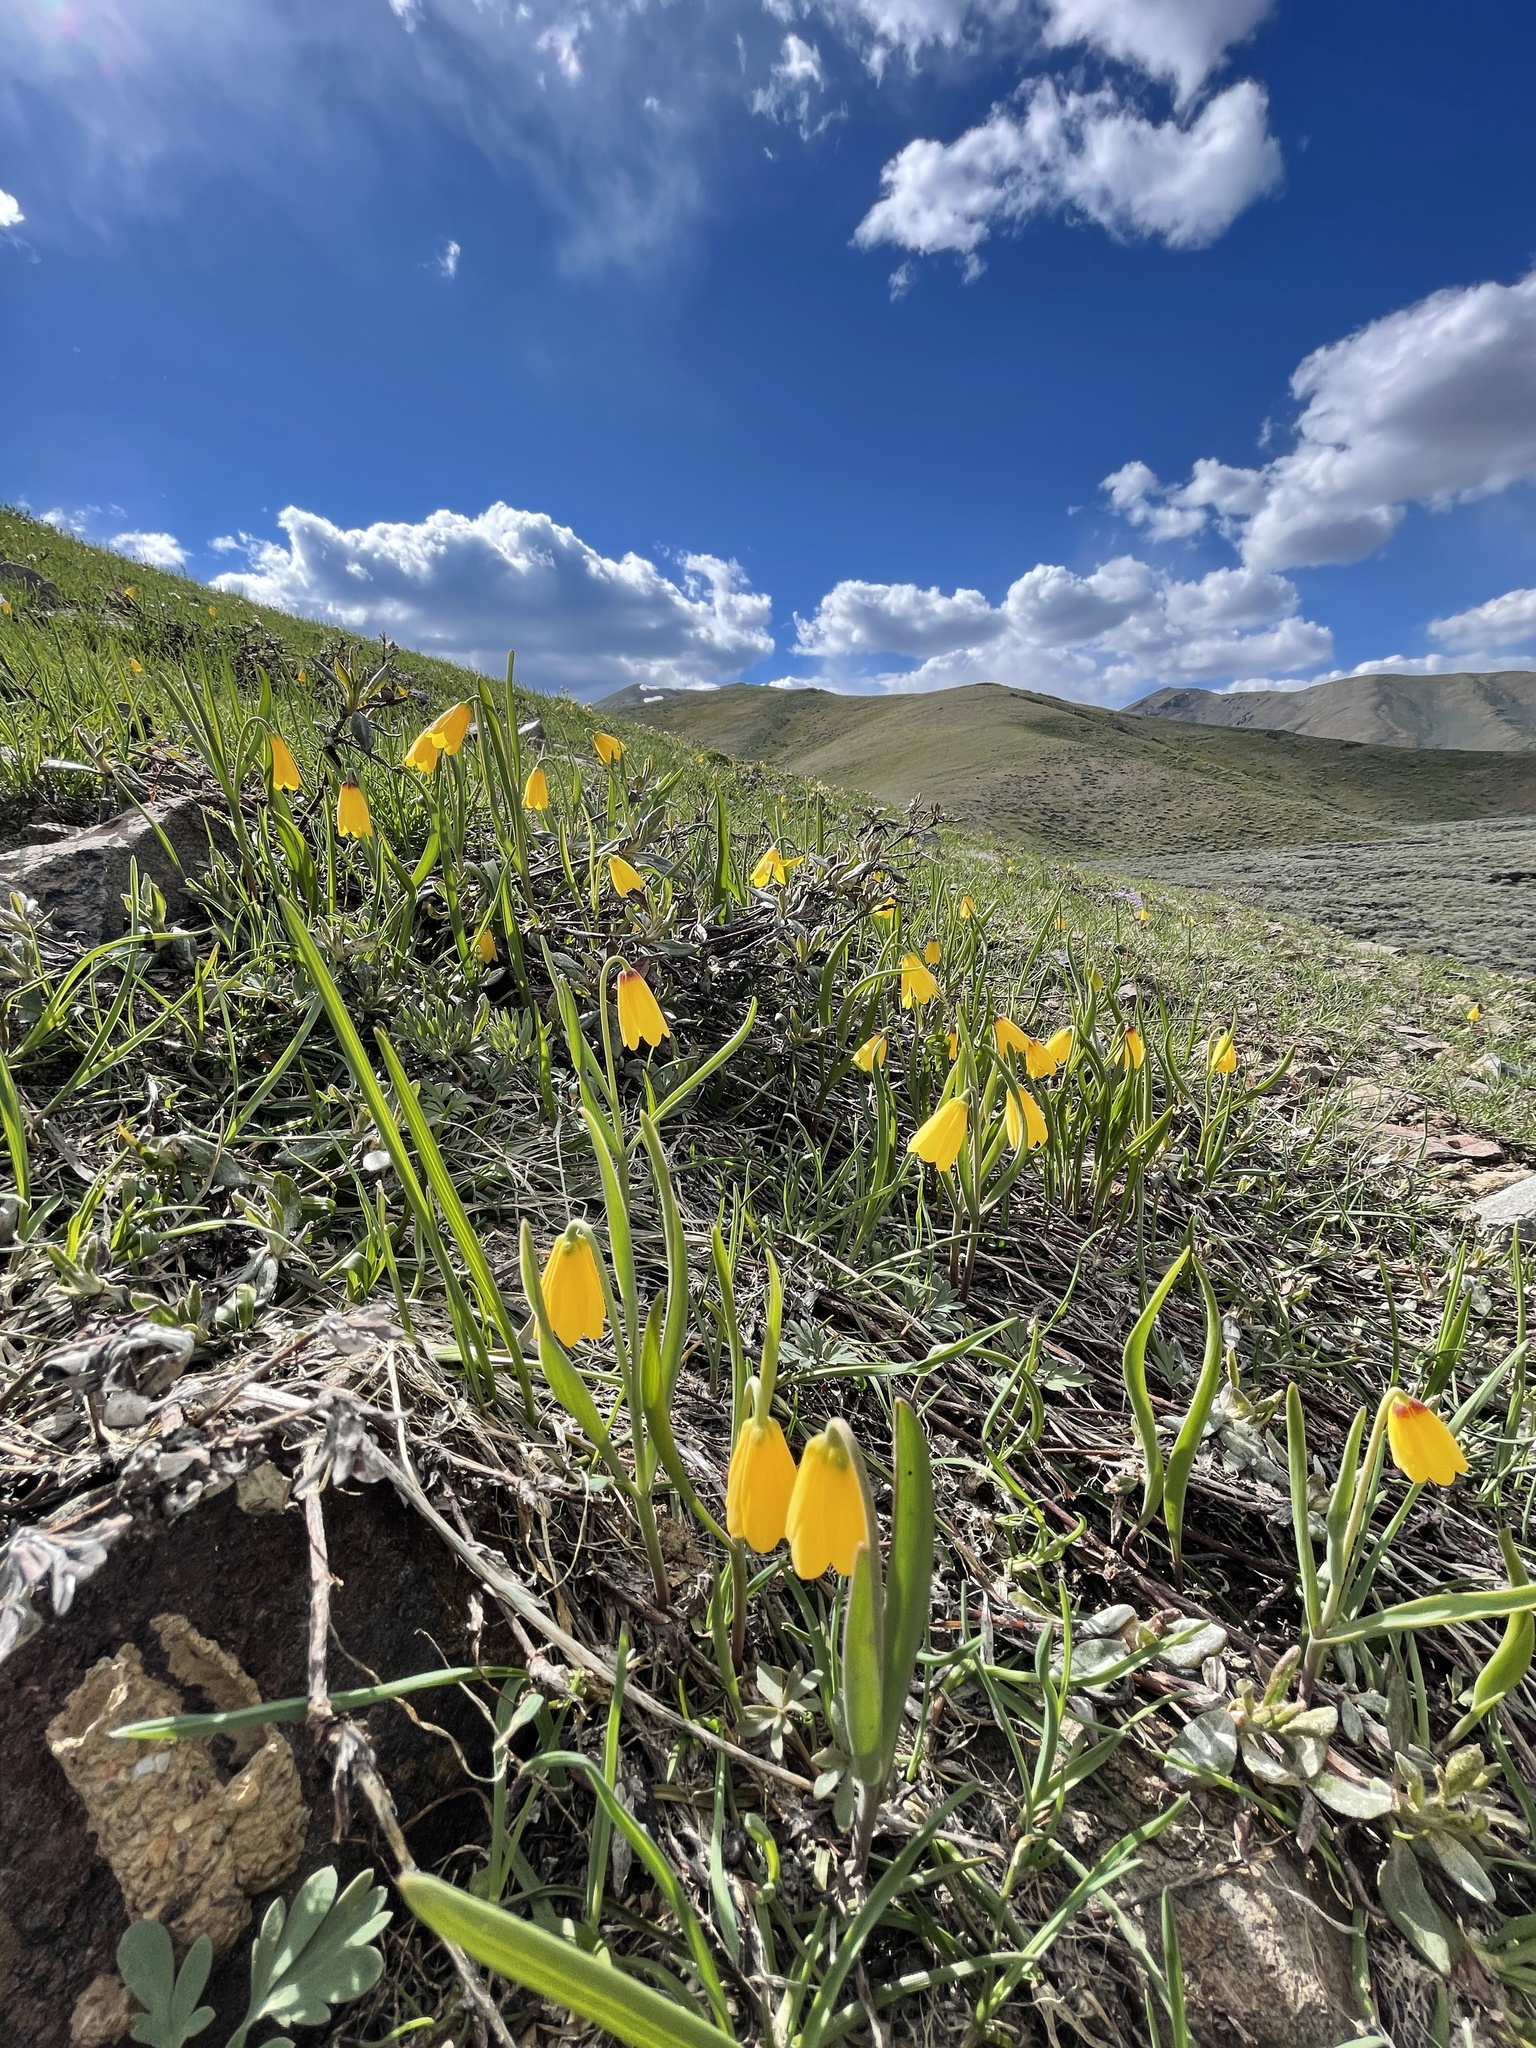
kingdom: Plantae
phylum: Tracheophyta
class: Liliopsida
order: Liliales
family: Liliaceae
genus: Fritillaria
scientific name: Fritillaria pudica
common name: Yellow fritillary
